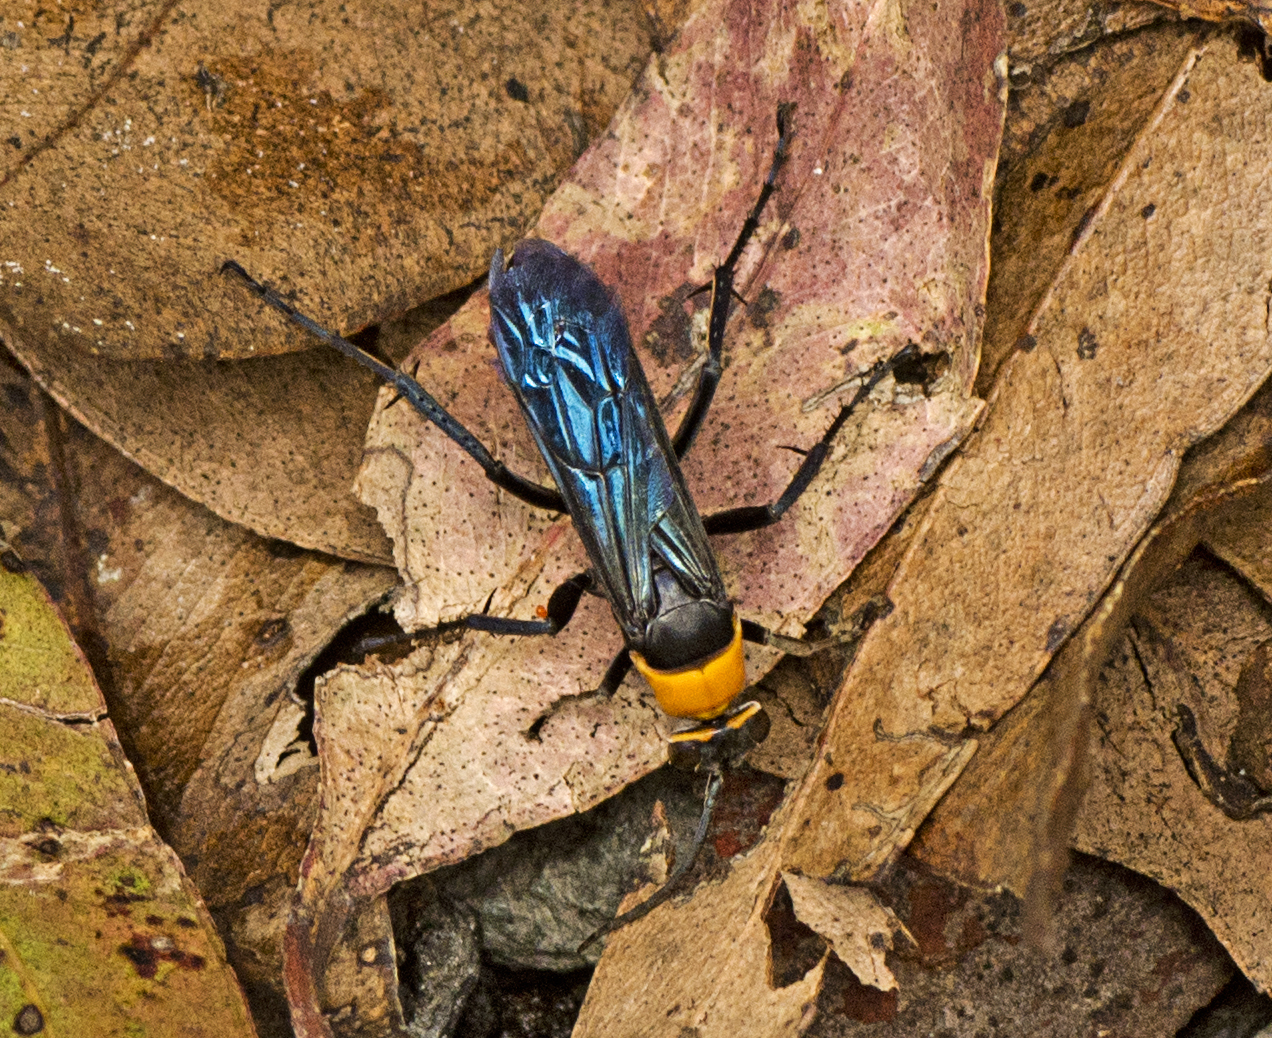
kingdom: Animalia
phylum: Arthropoda
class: Insecta
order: Hymenoptera
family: Pompilidae
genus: Ferreola
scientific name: Ferreola handschini
